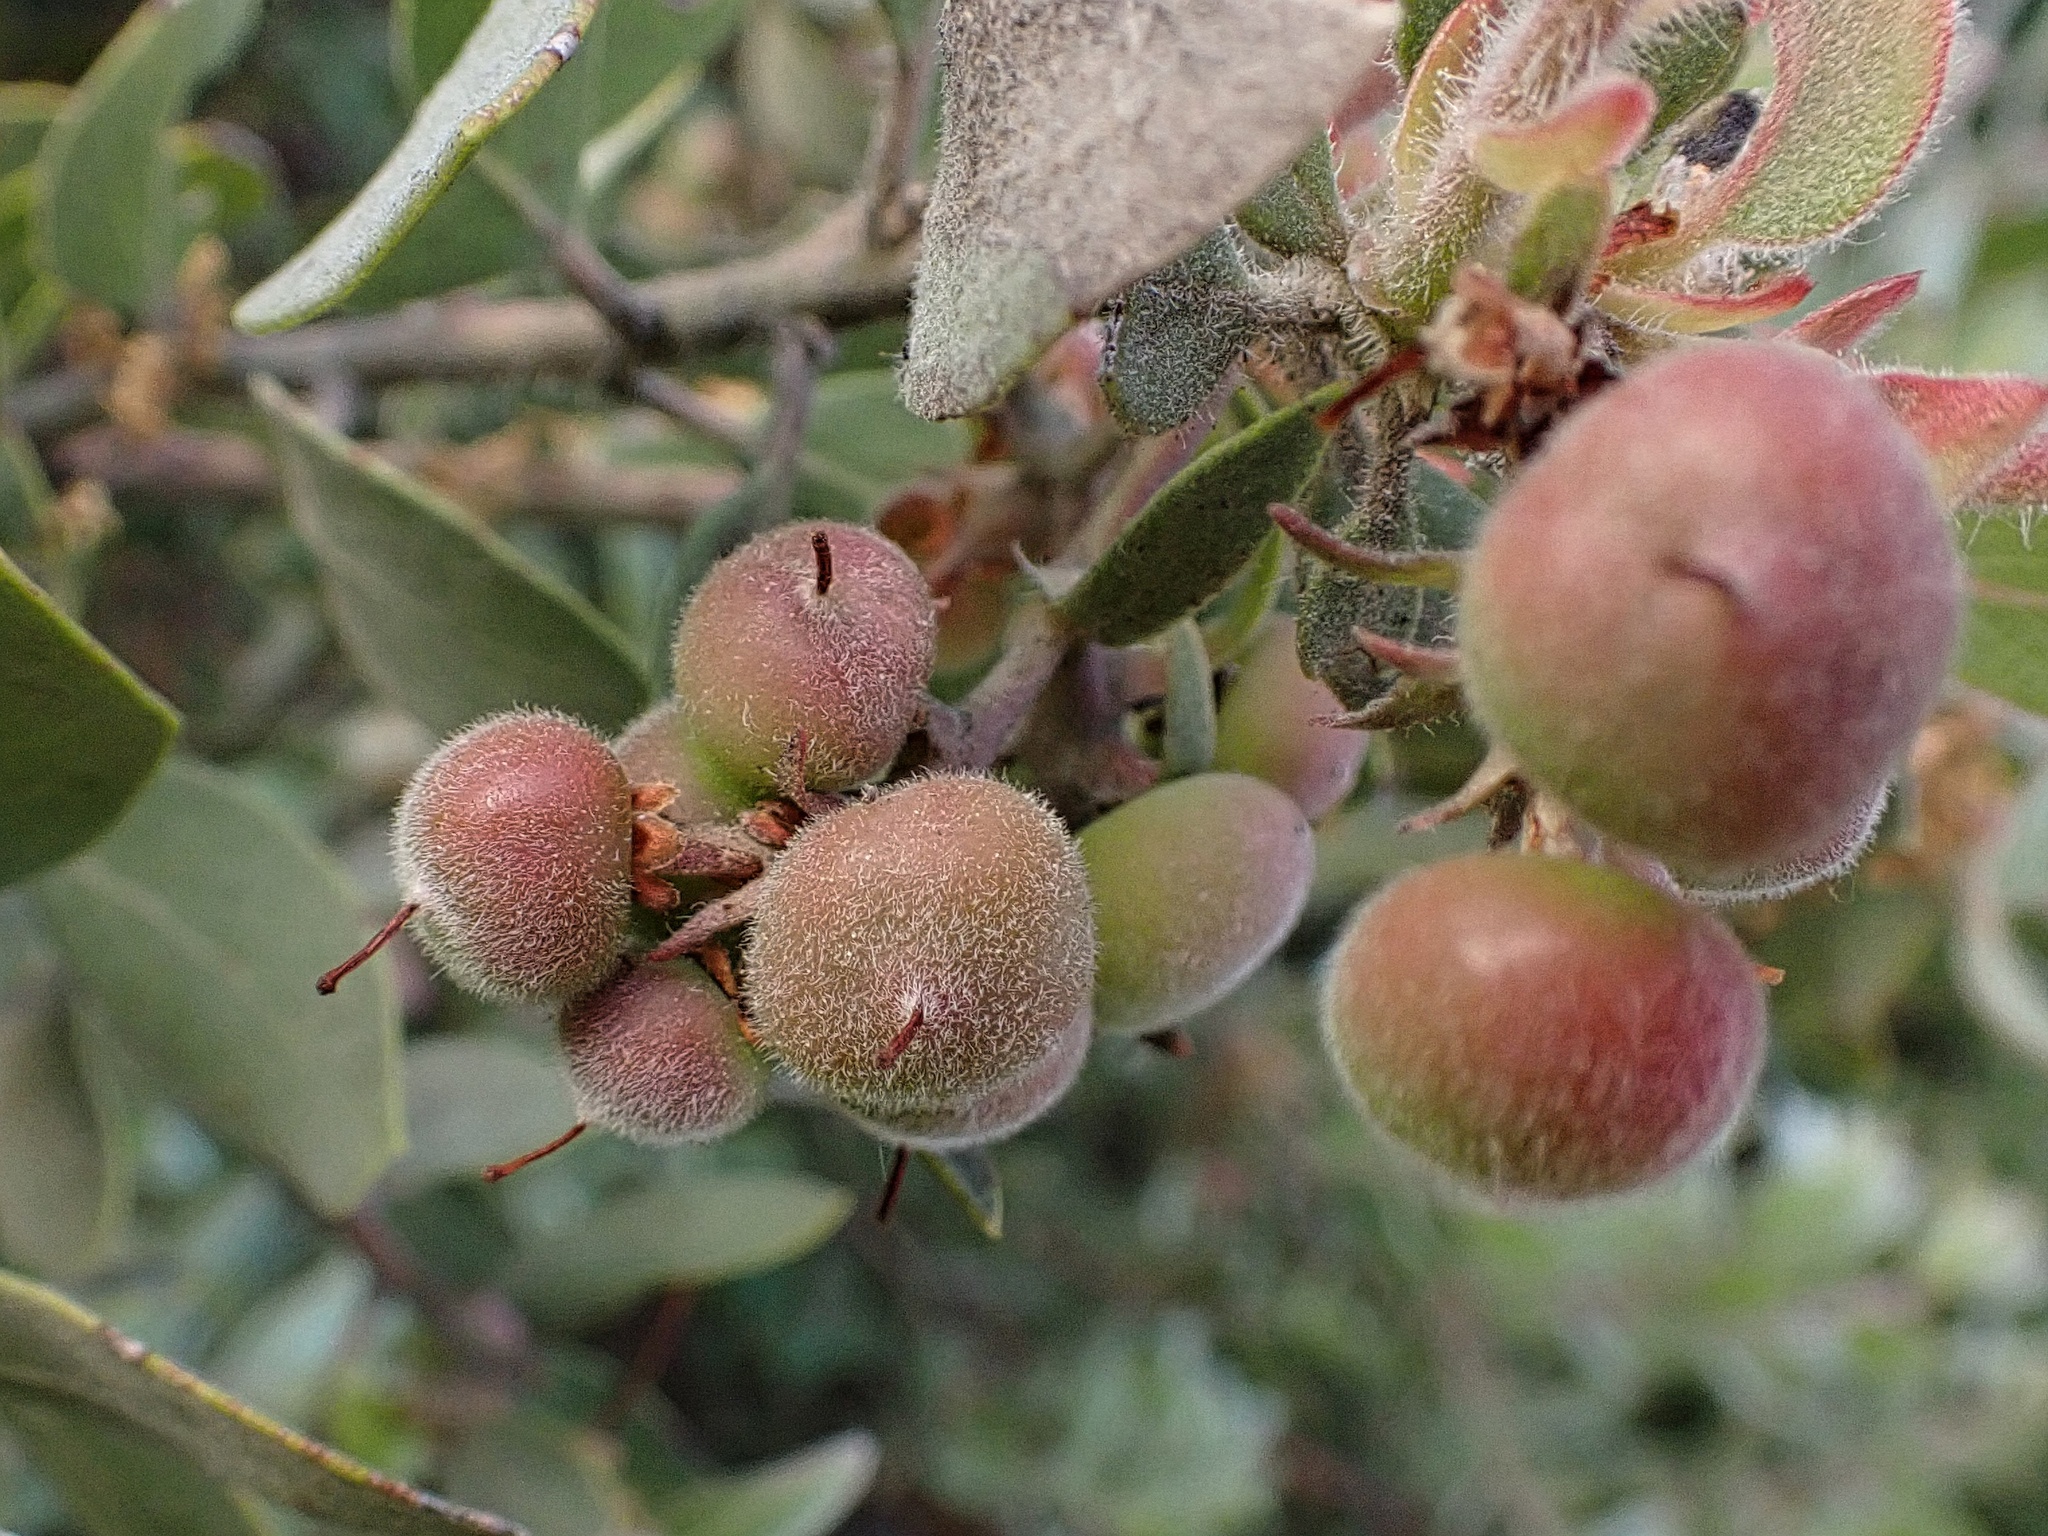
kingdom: Plantae
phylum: Tracheophyta
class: Magnoliopsida
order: Ericales
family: Ericaceae
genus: Arctostaphylos
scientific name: Arctostaphylos glandulosa
